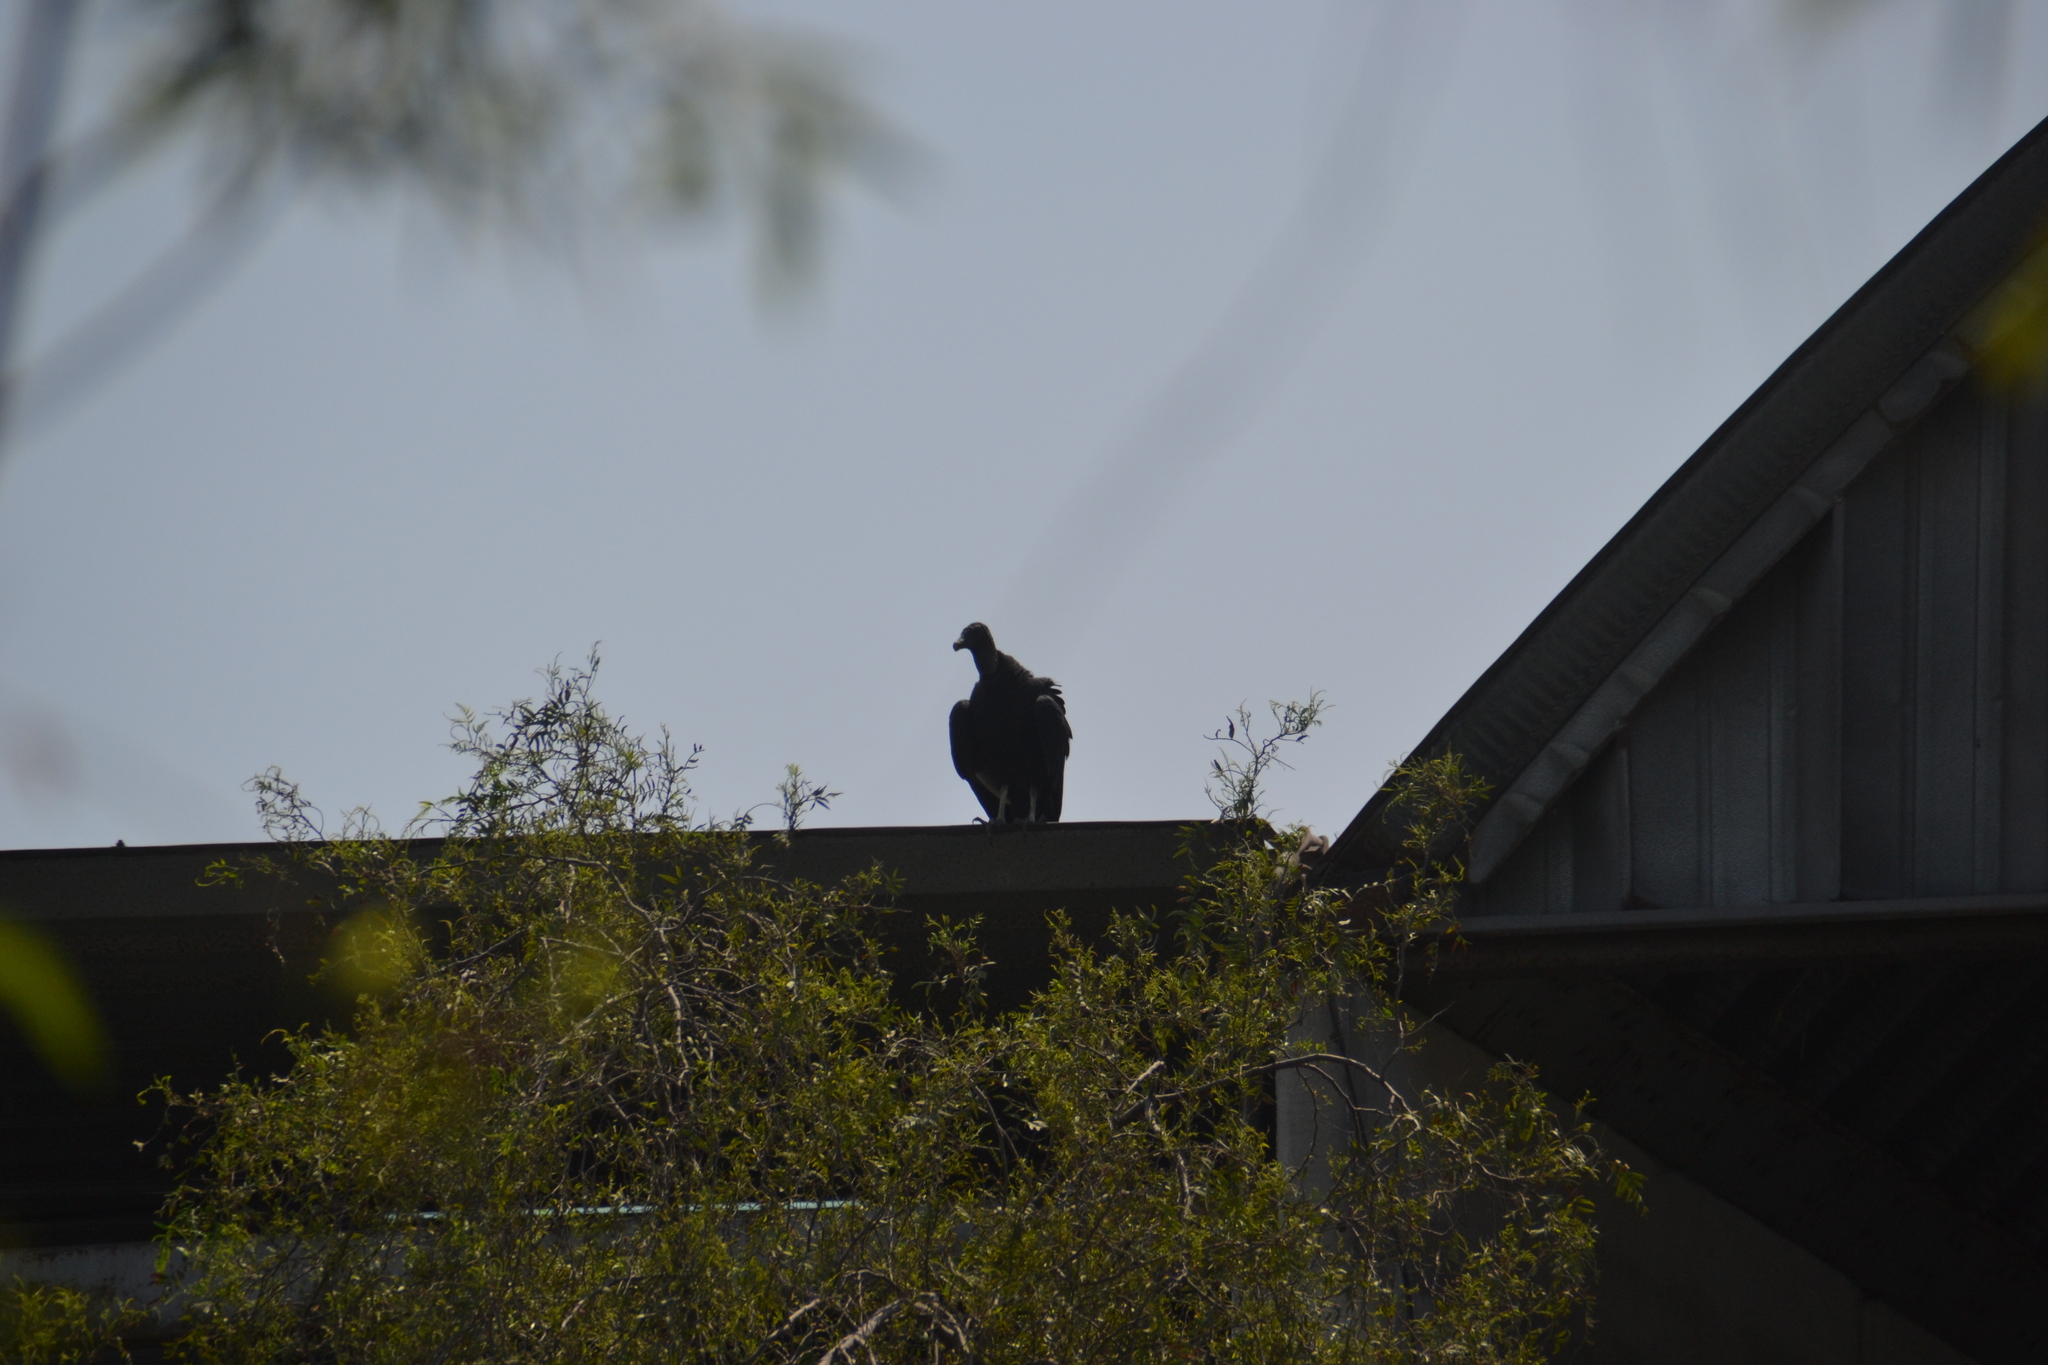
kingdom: Animalia
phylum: Chordata
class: Aves
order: Accipitriformes
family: Cathartidae
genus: Coragyps
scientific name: Coragyps atratus
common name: Black vulture
